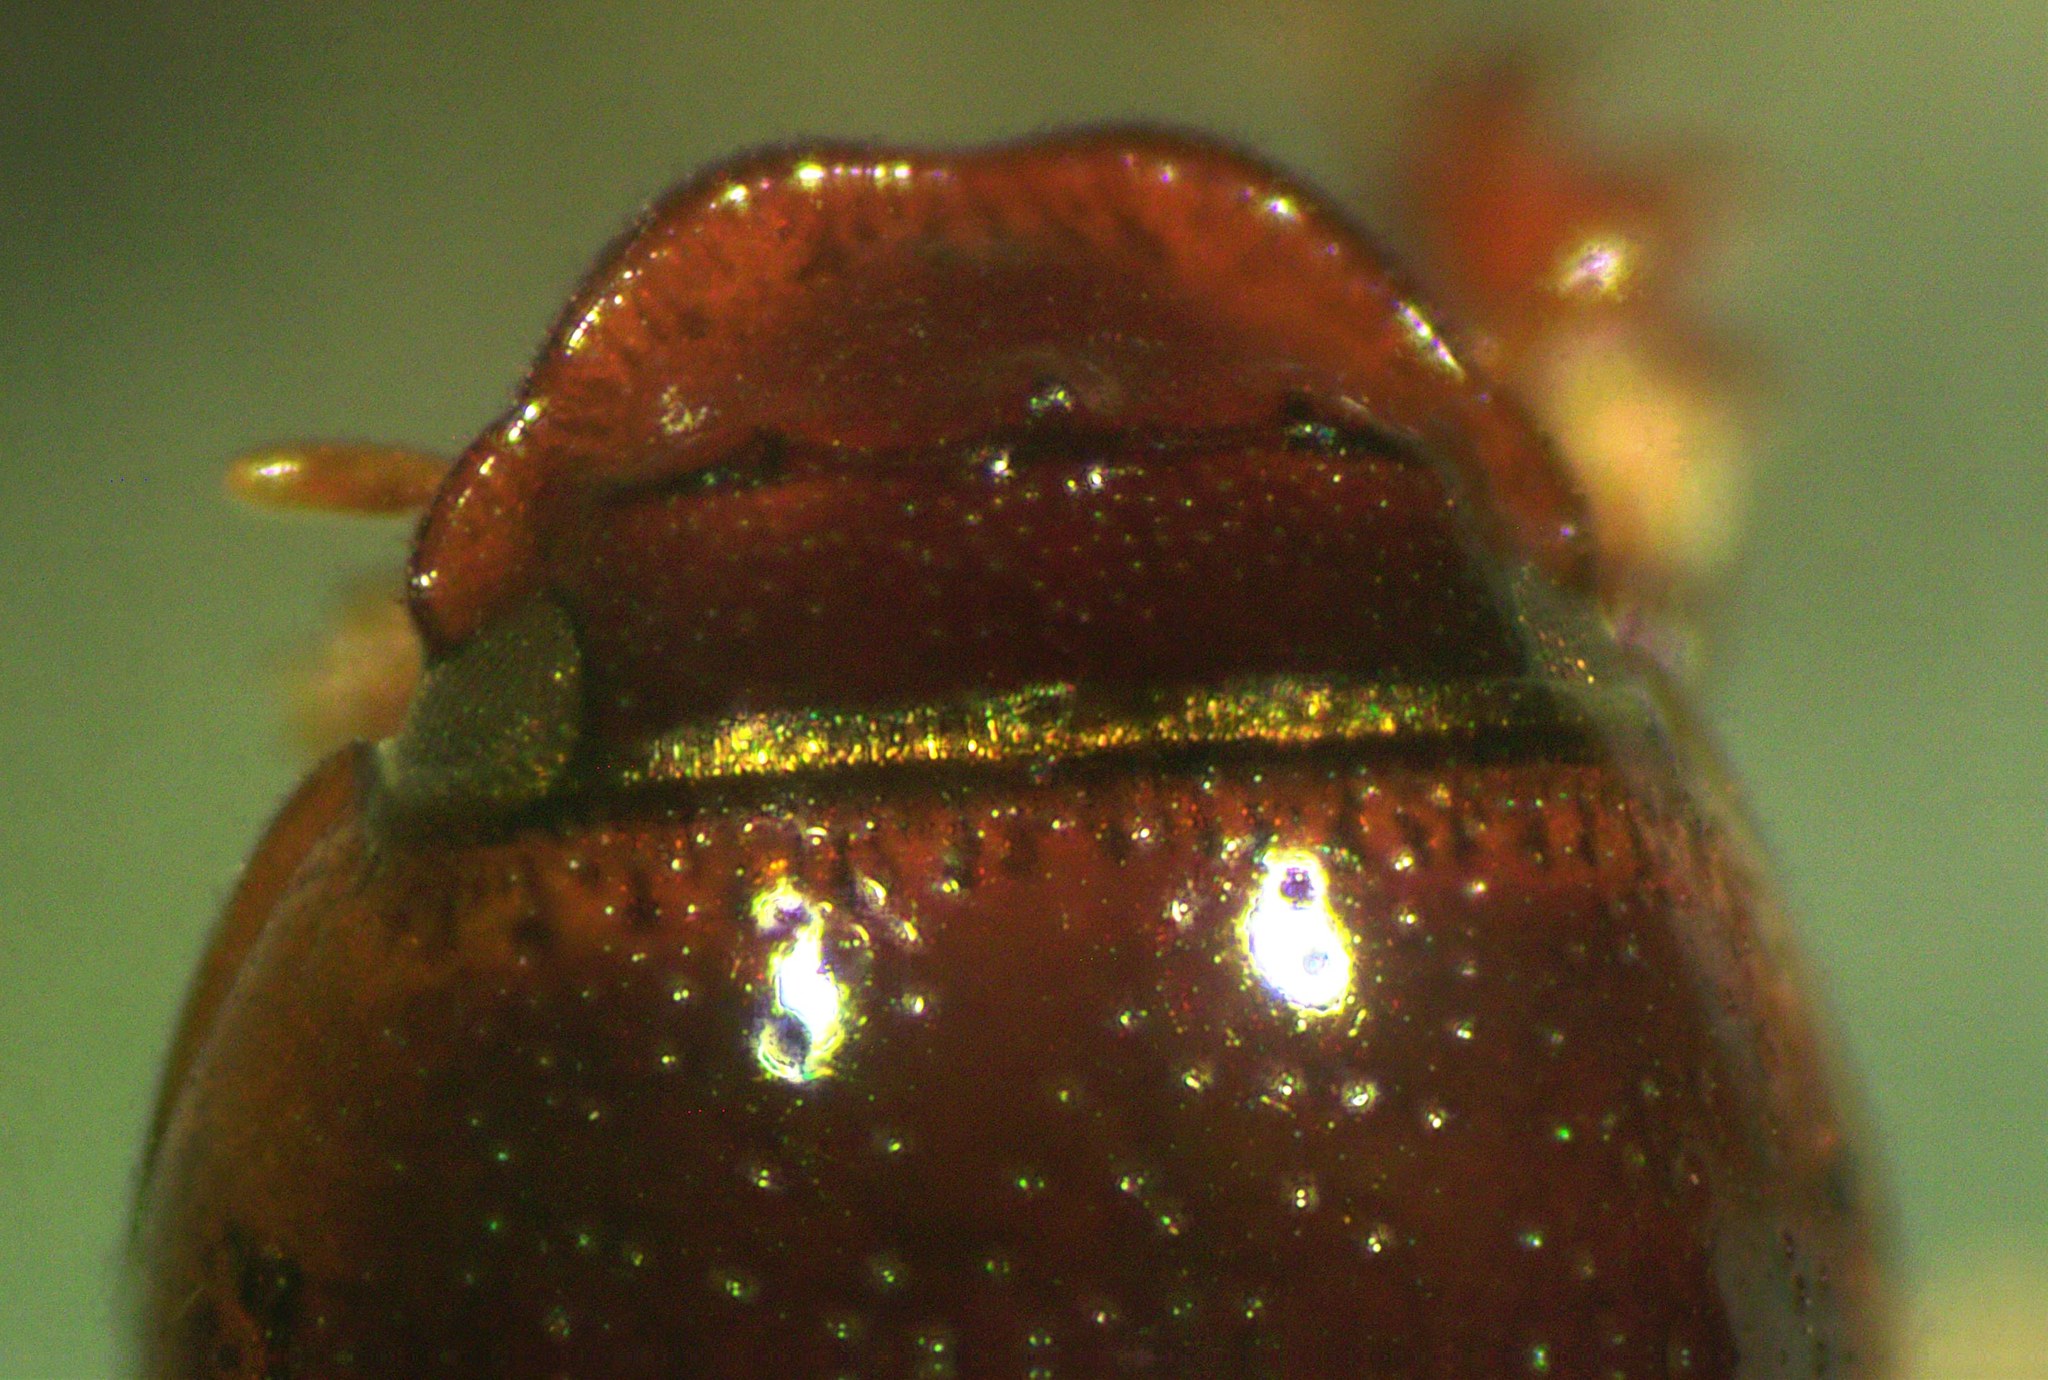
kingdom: Animalia
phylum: Arthropoda
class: Insecta
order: Coleoptera
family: Scarabaeidae
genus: Nialaphodius
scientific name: Nialaphodius nigrita
